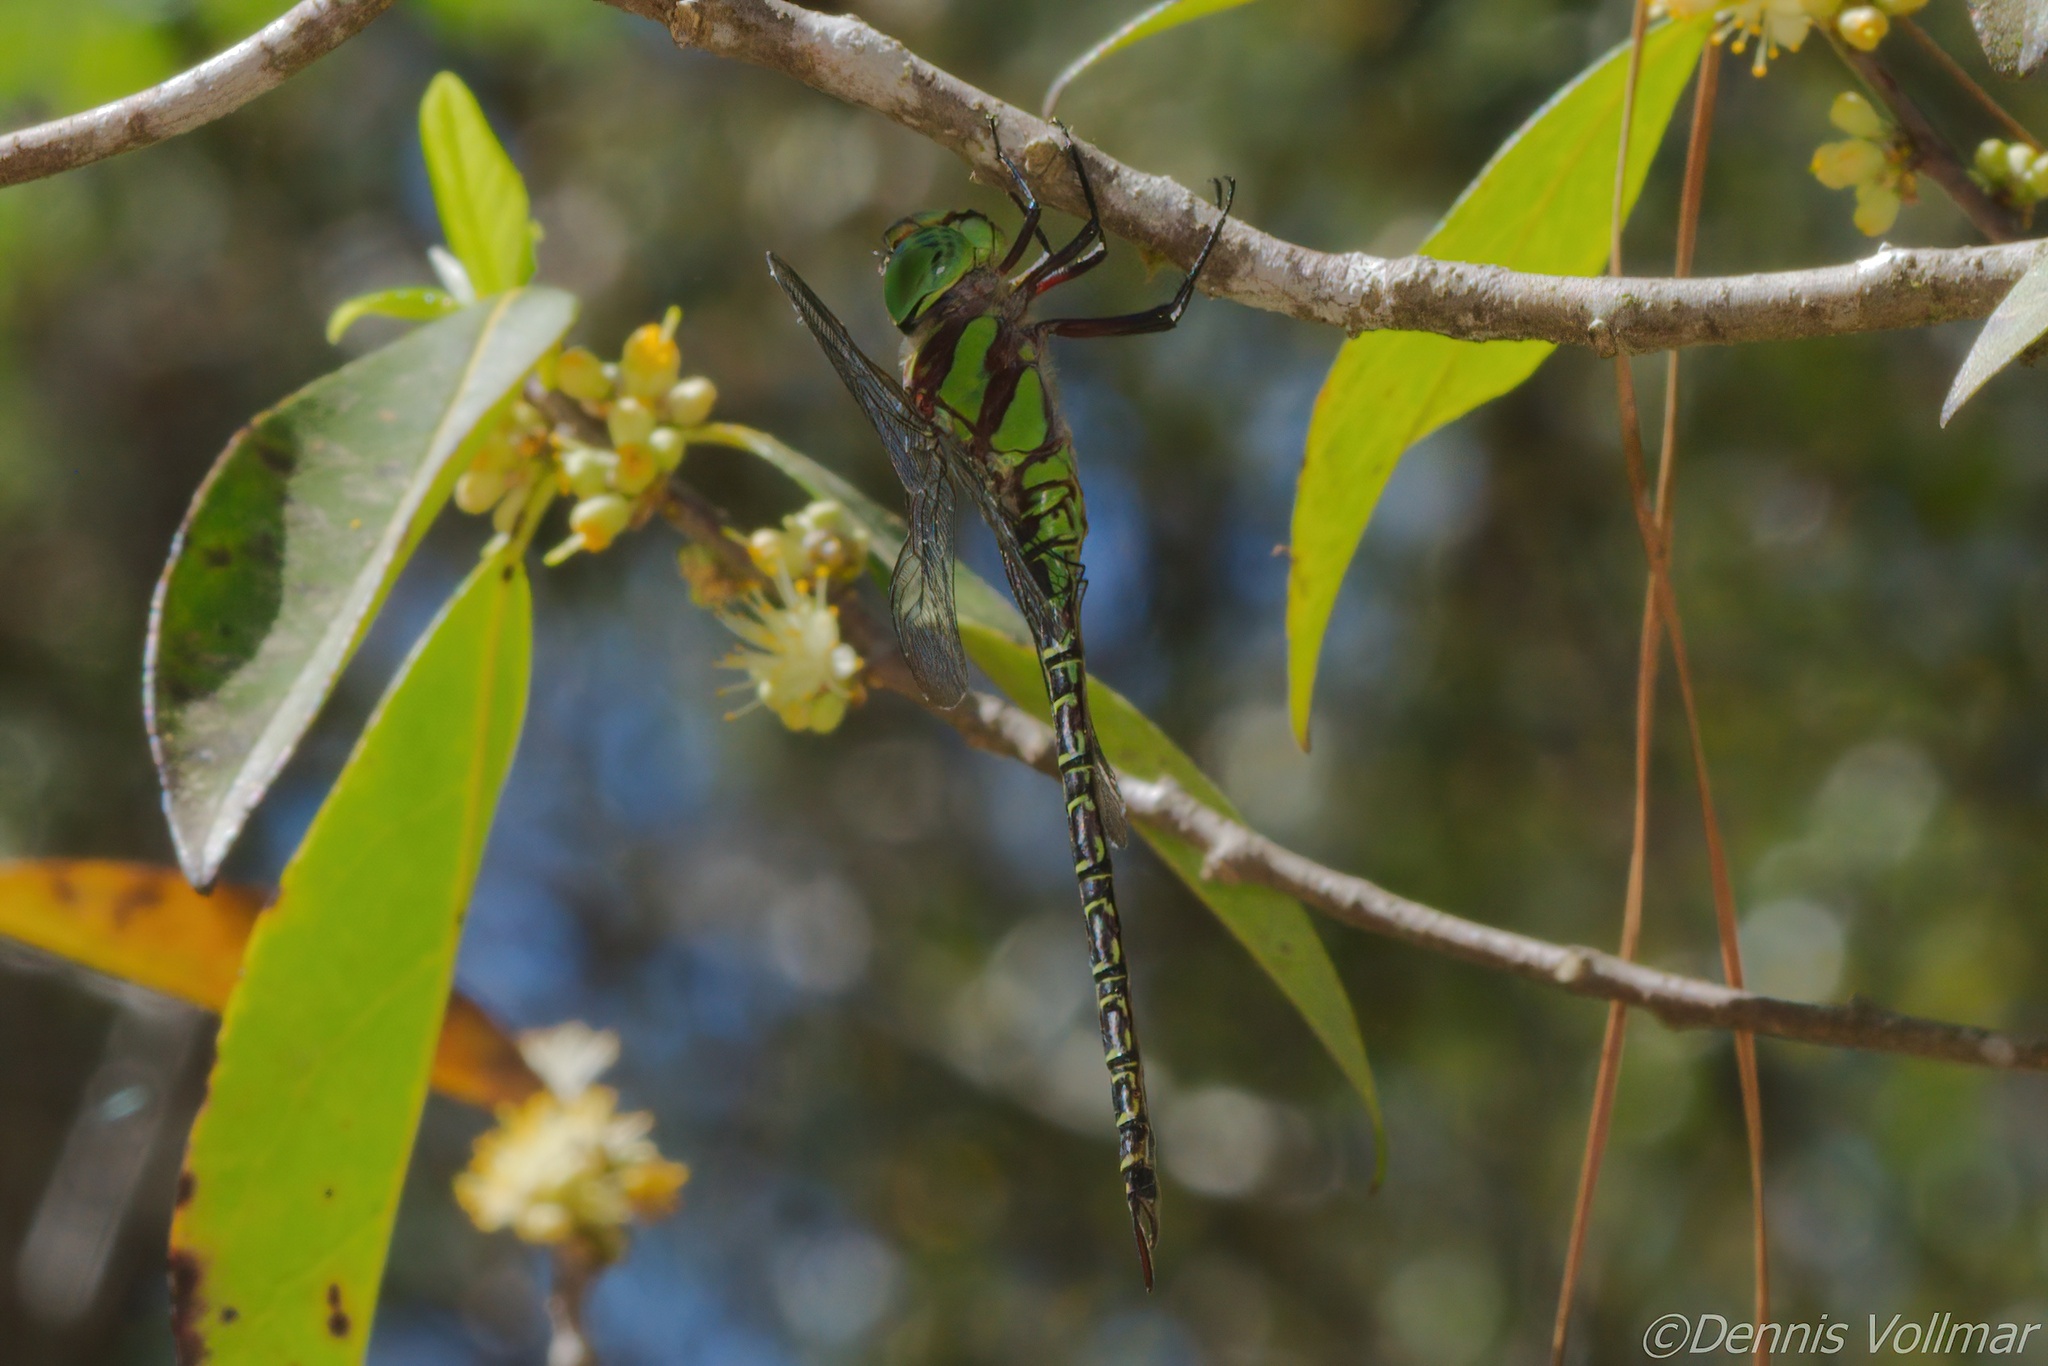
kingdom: Animalia
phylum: Arthropoda
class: Insecta
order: Odonata
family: Aeshnidae
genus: Coryphaeschna
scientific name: Coryphaeschna ingens
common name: Regal darner
